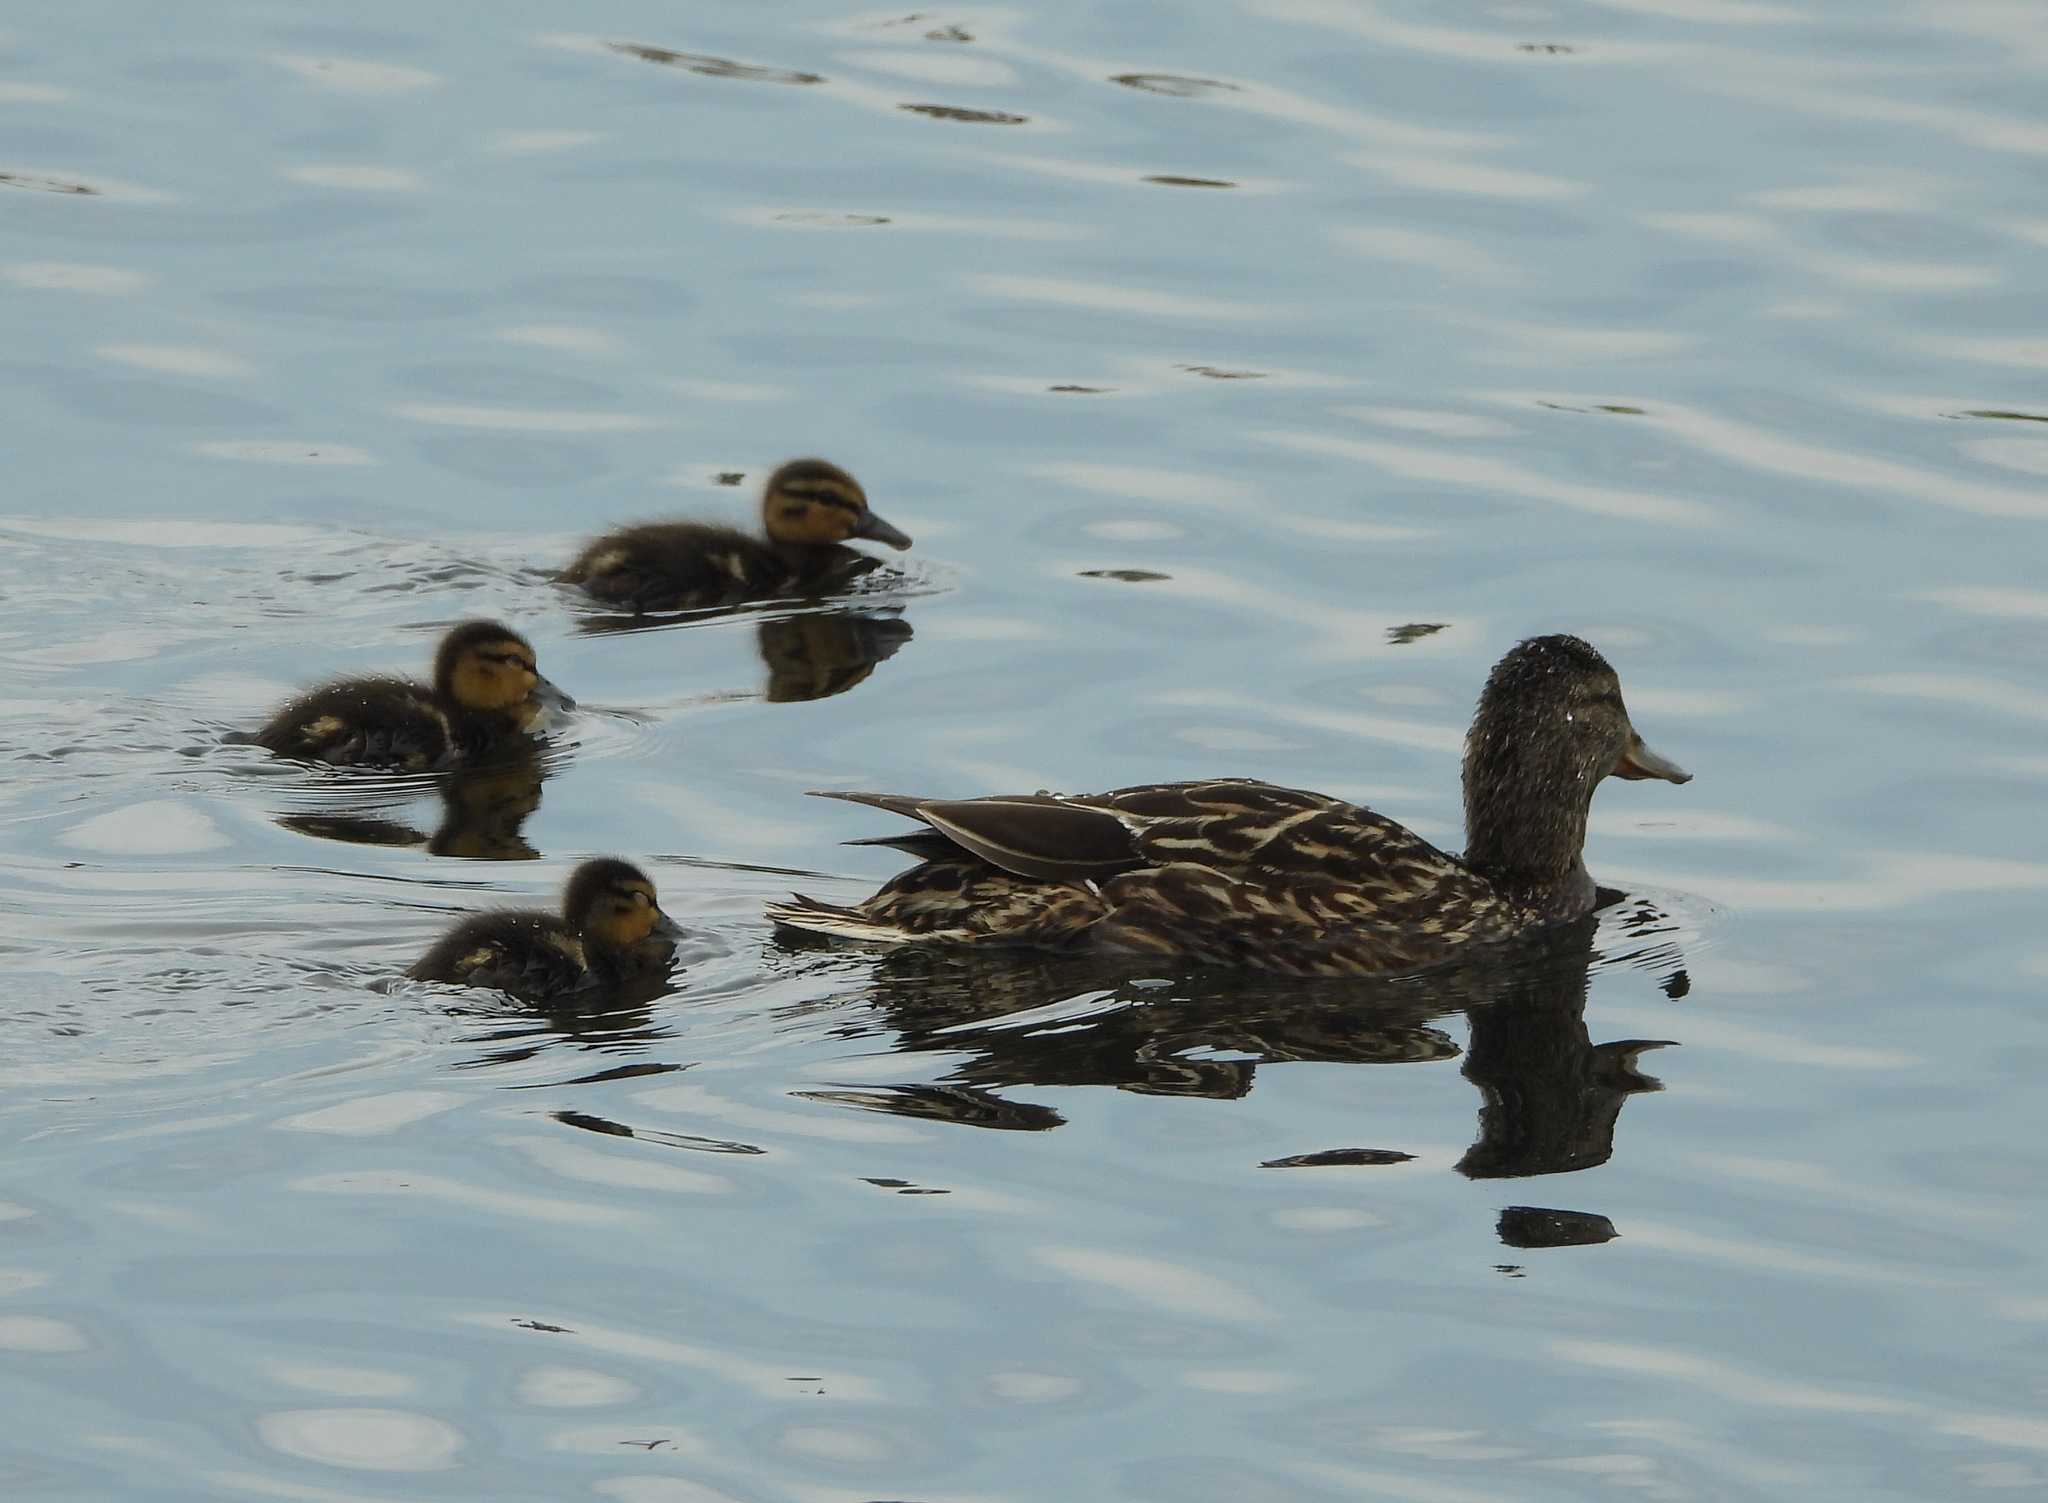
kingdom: Animalia
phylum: Chordata
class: Aves
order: Anseriformes
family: Anatidae
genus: Anas
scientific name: Anas platyrhynchos
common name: Mallard
